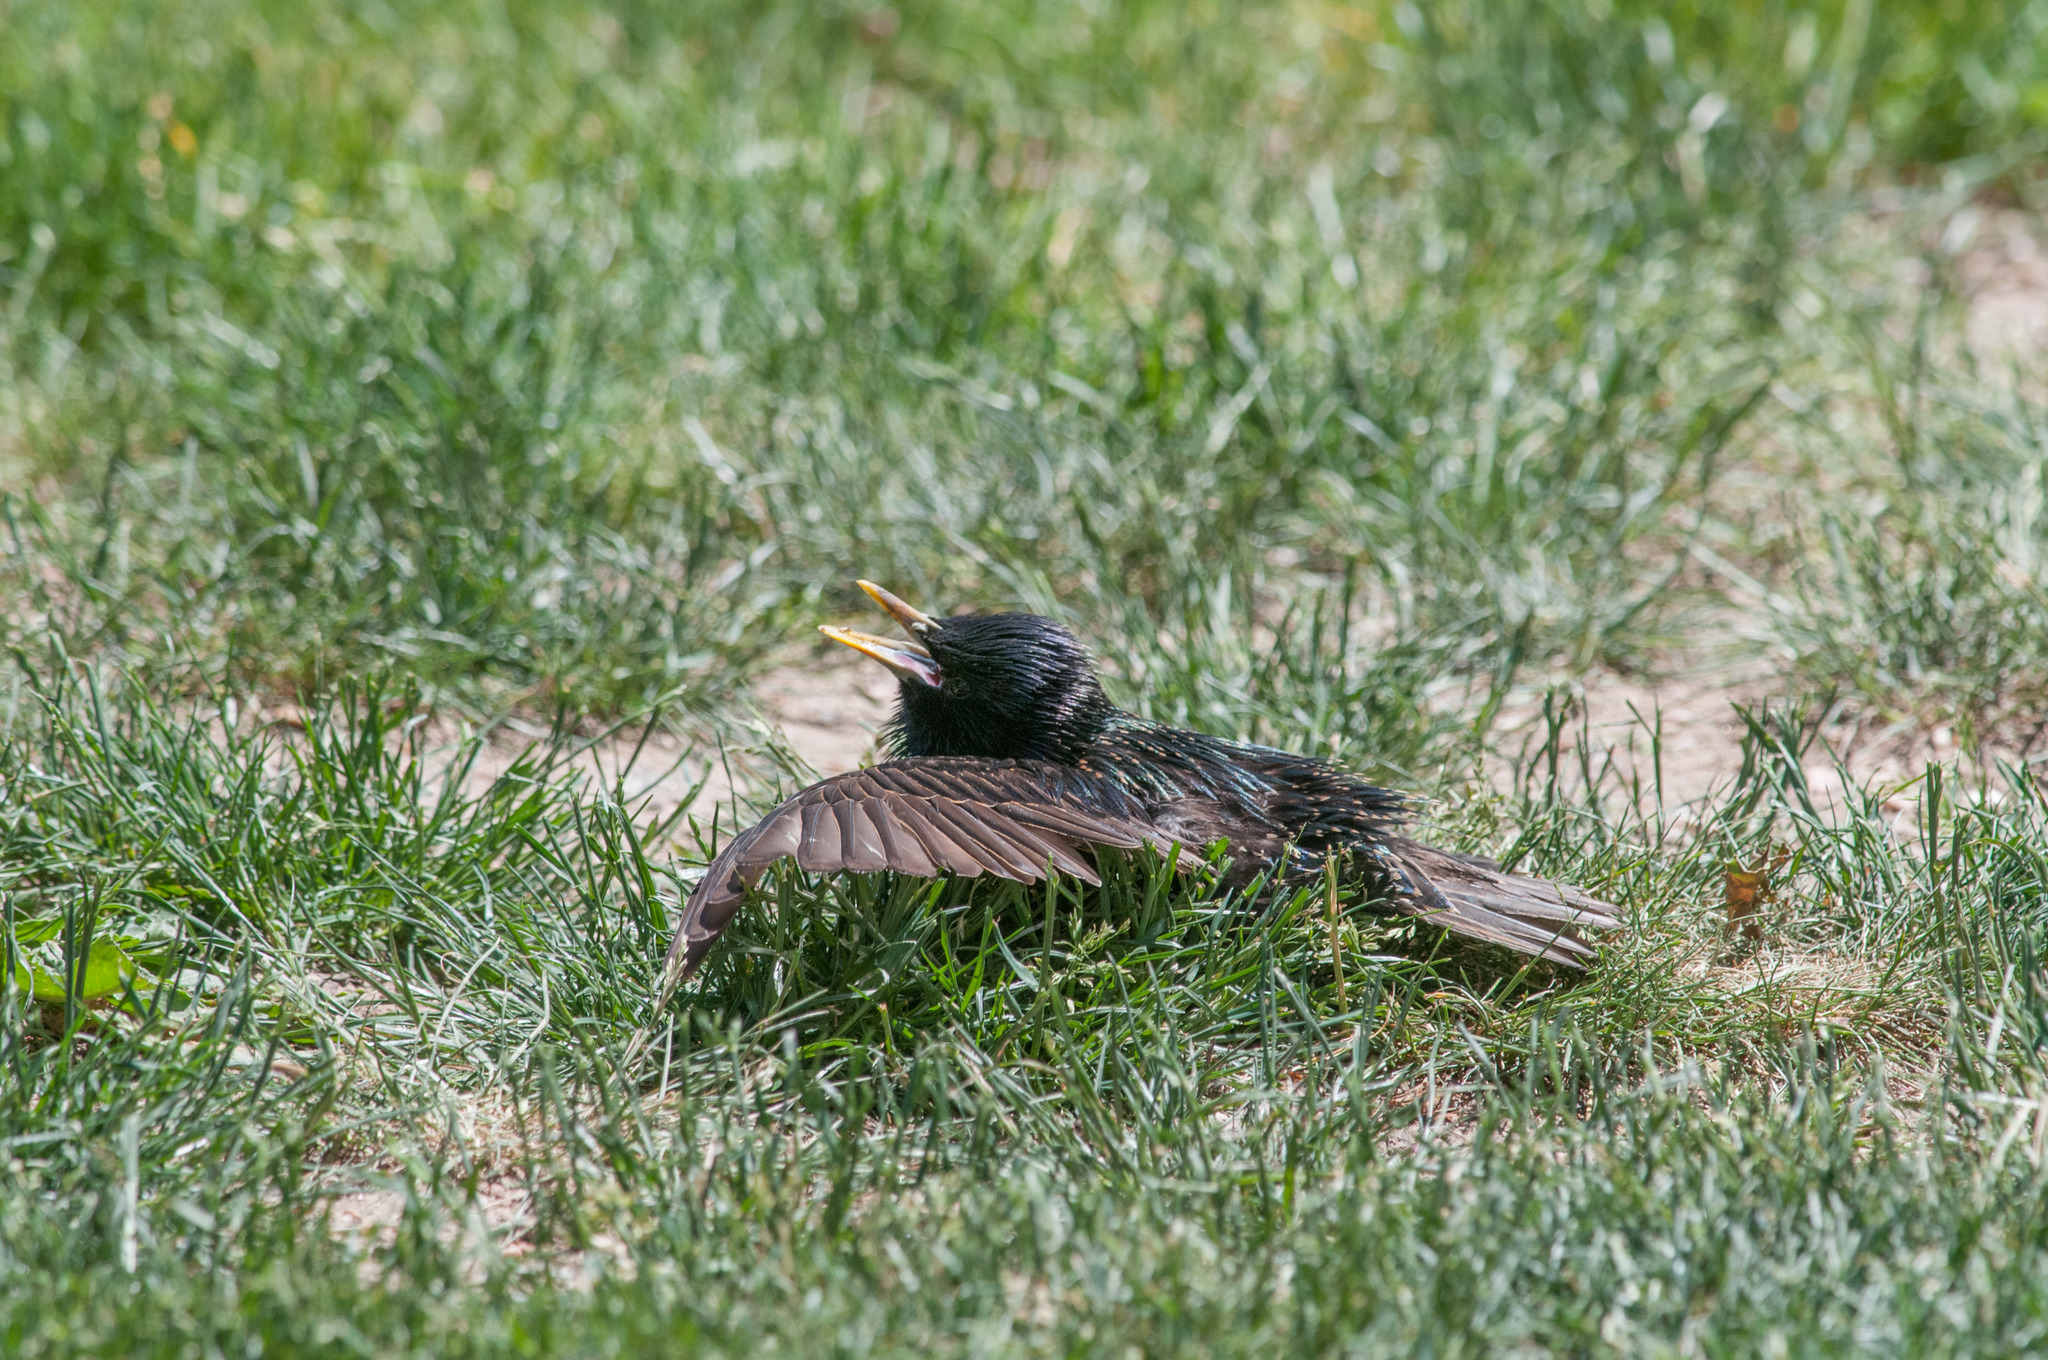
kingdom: Animalia
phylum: Chordata
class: Aves
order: Passeriformes
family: Sturnidae
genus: Sturnus
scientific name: Sturnus vulgaris
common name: Common starling
